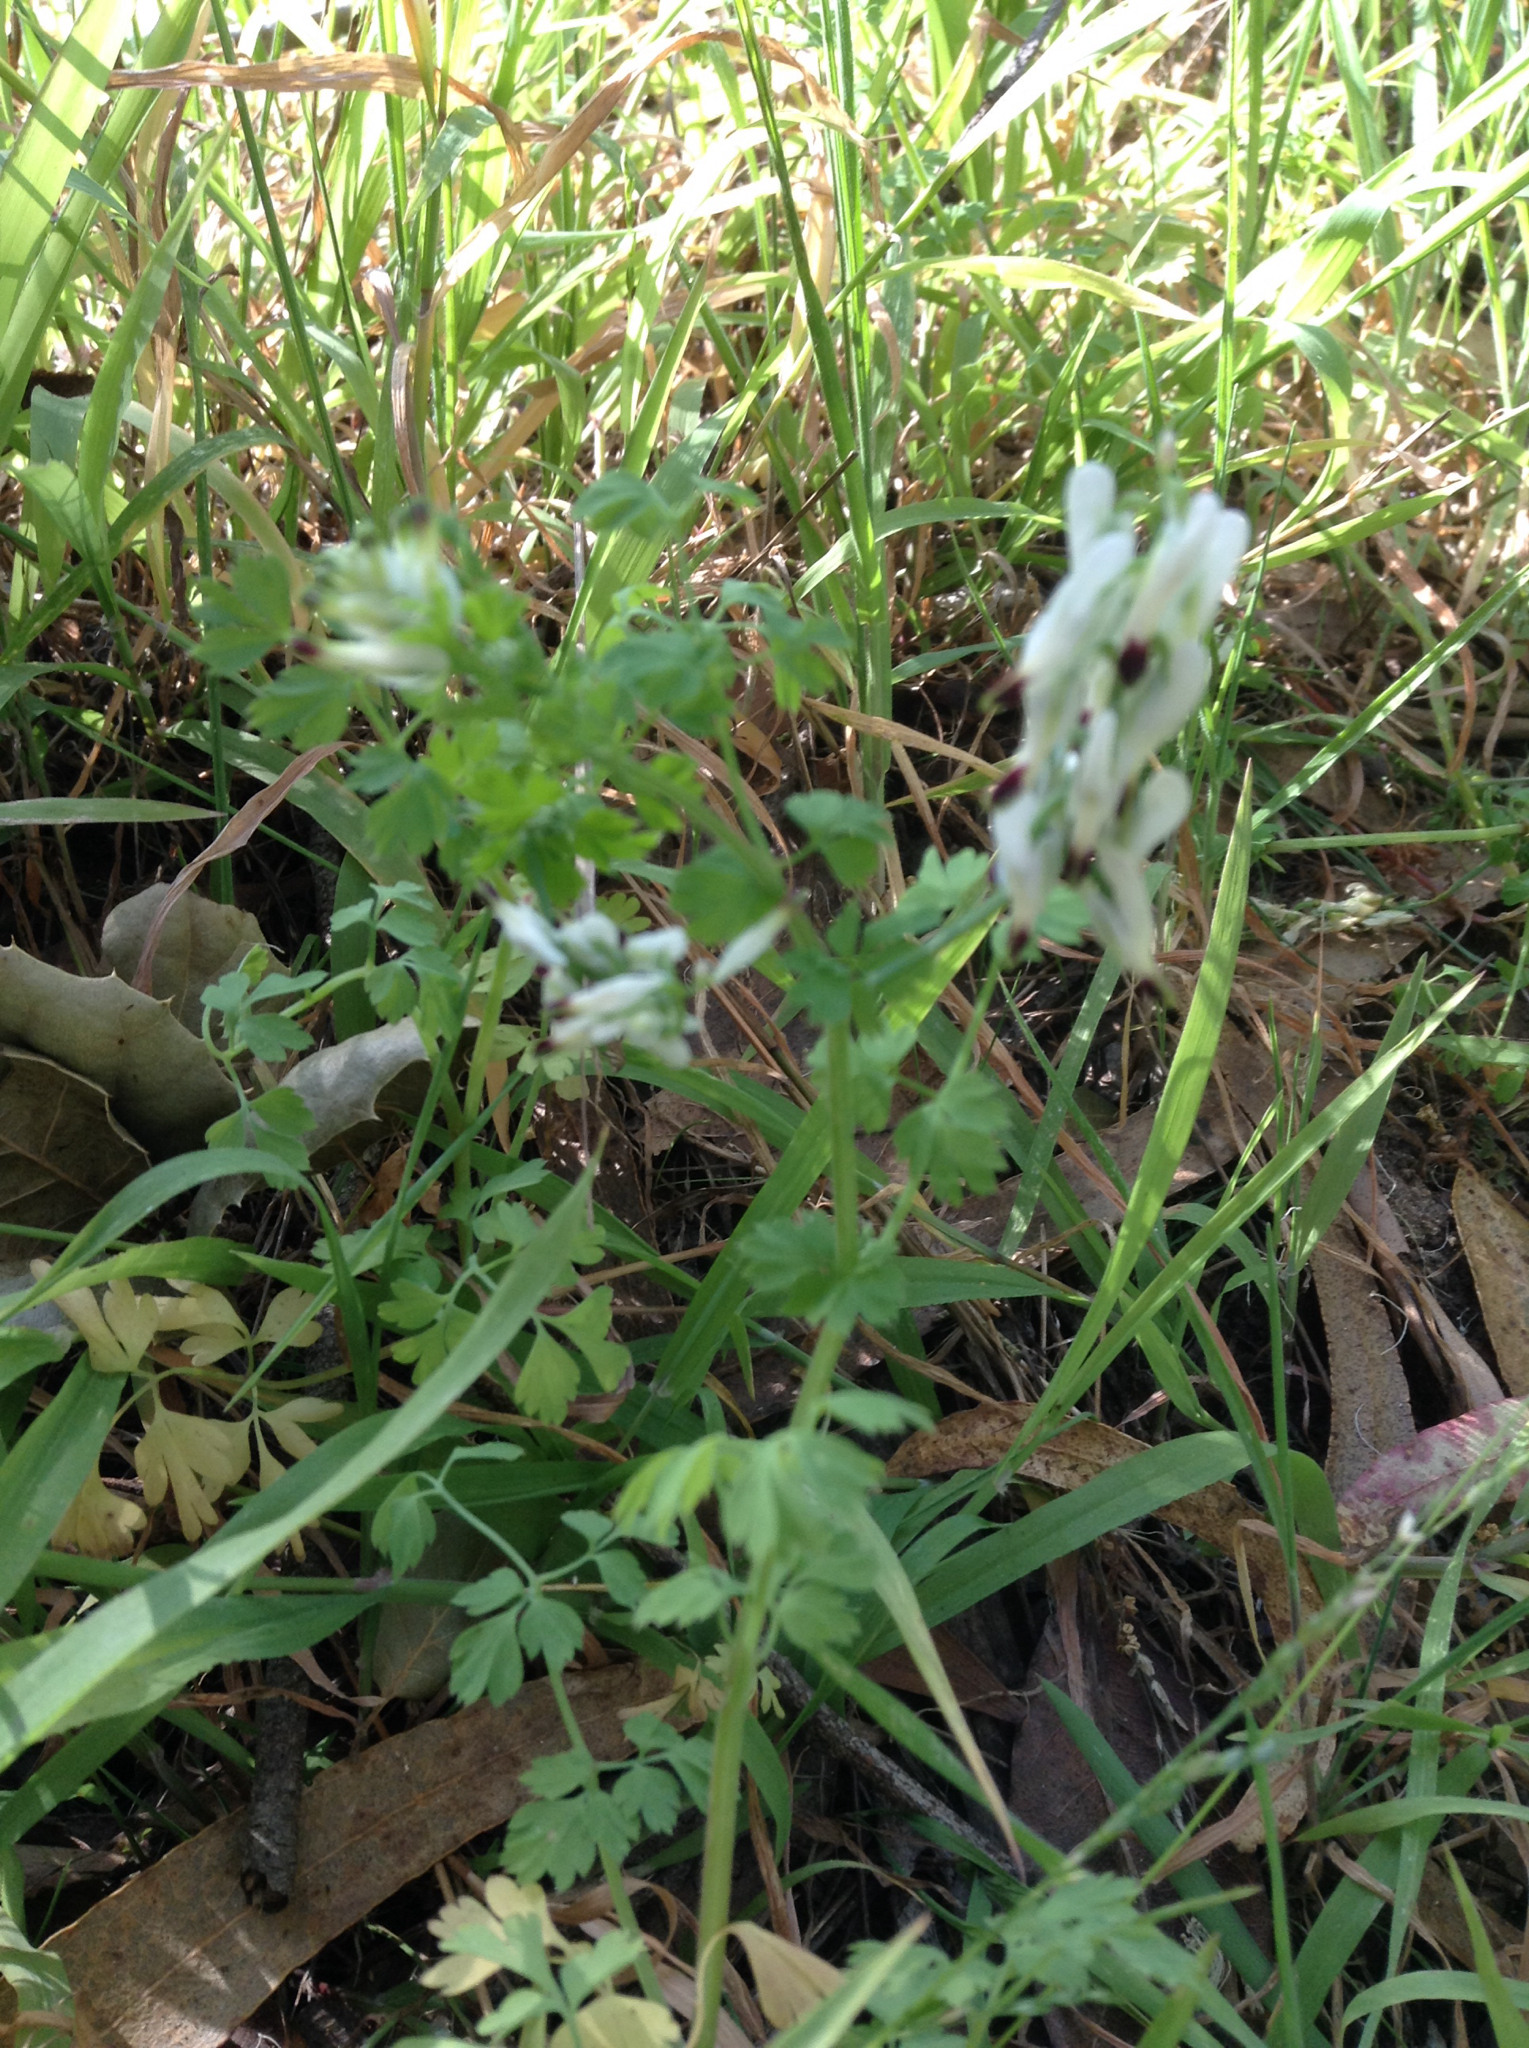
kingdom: Plantae
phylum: Tracheophyta
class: Magnoliopsida
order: Ranunculales
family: Papaveraceae
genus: Fumaria
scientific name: Fumaria capreolata
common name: White ramping-fumitory
